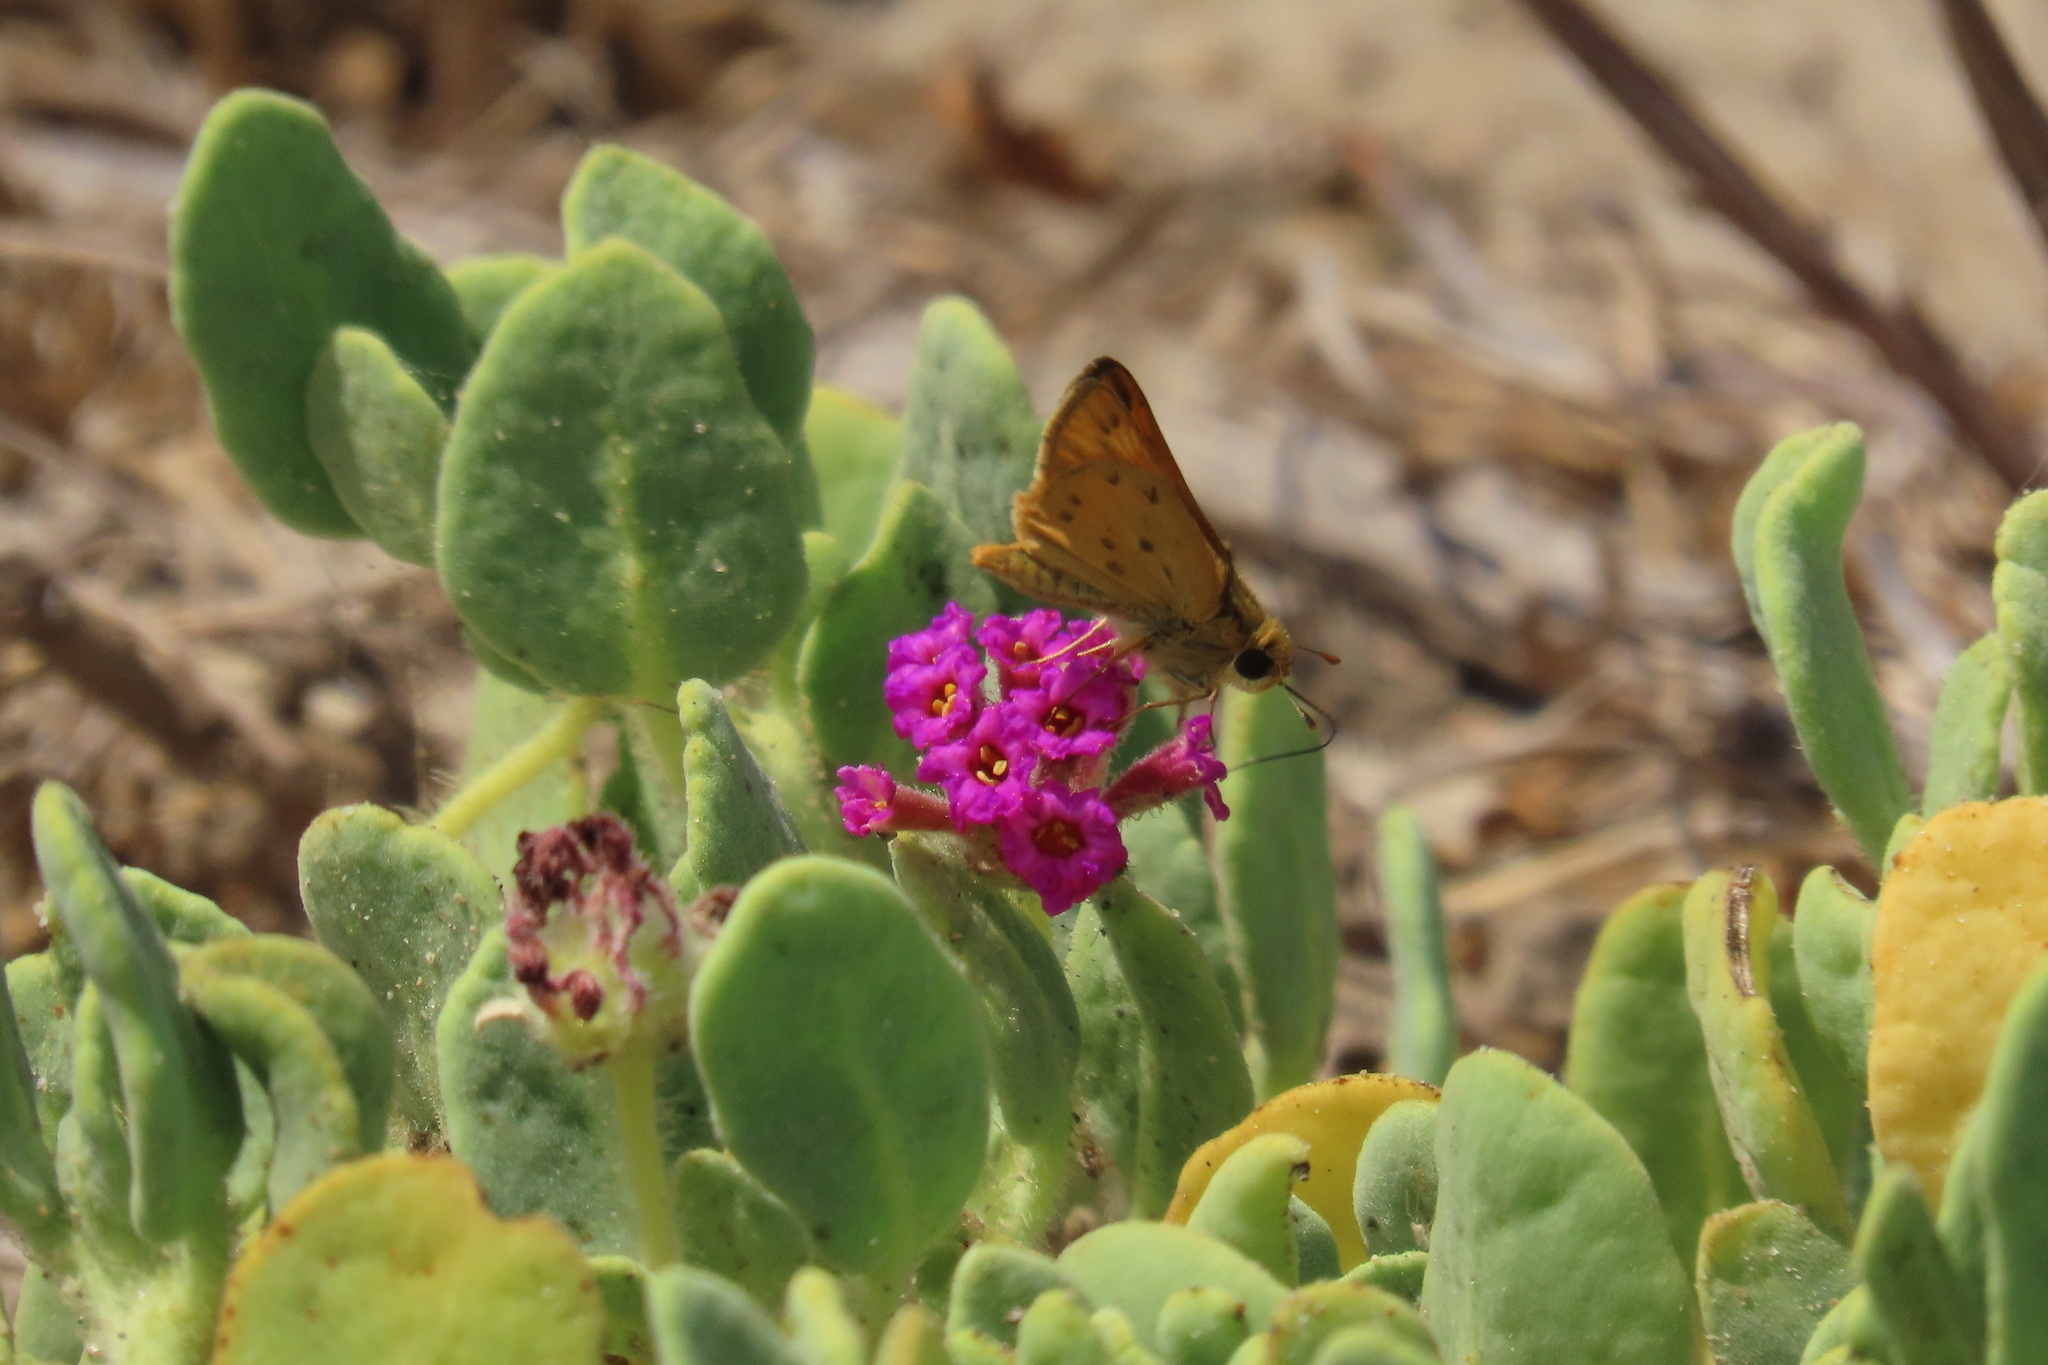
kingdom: Animalia
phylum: Arthropoda
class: Insecta
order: Lepidoptera
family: Hesperiidae
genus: Hylephila
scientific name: Hylephila phyleus
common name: Fiery skipper
